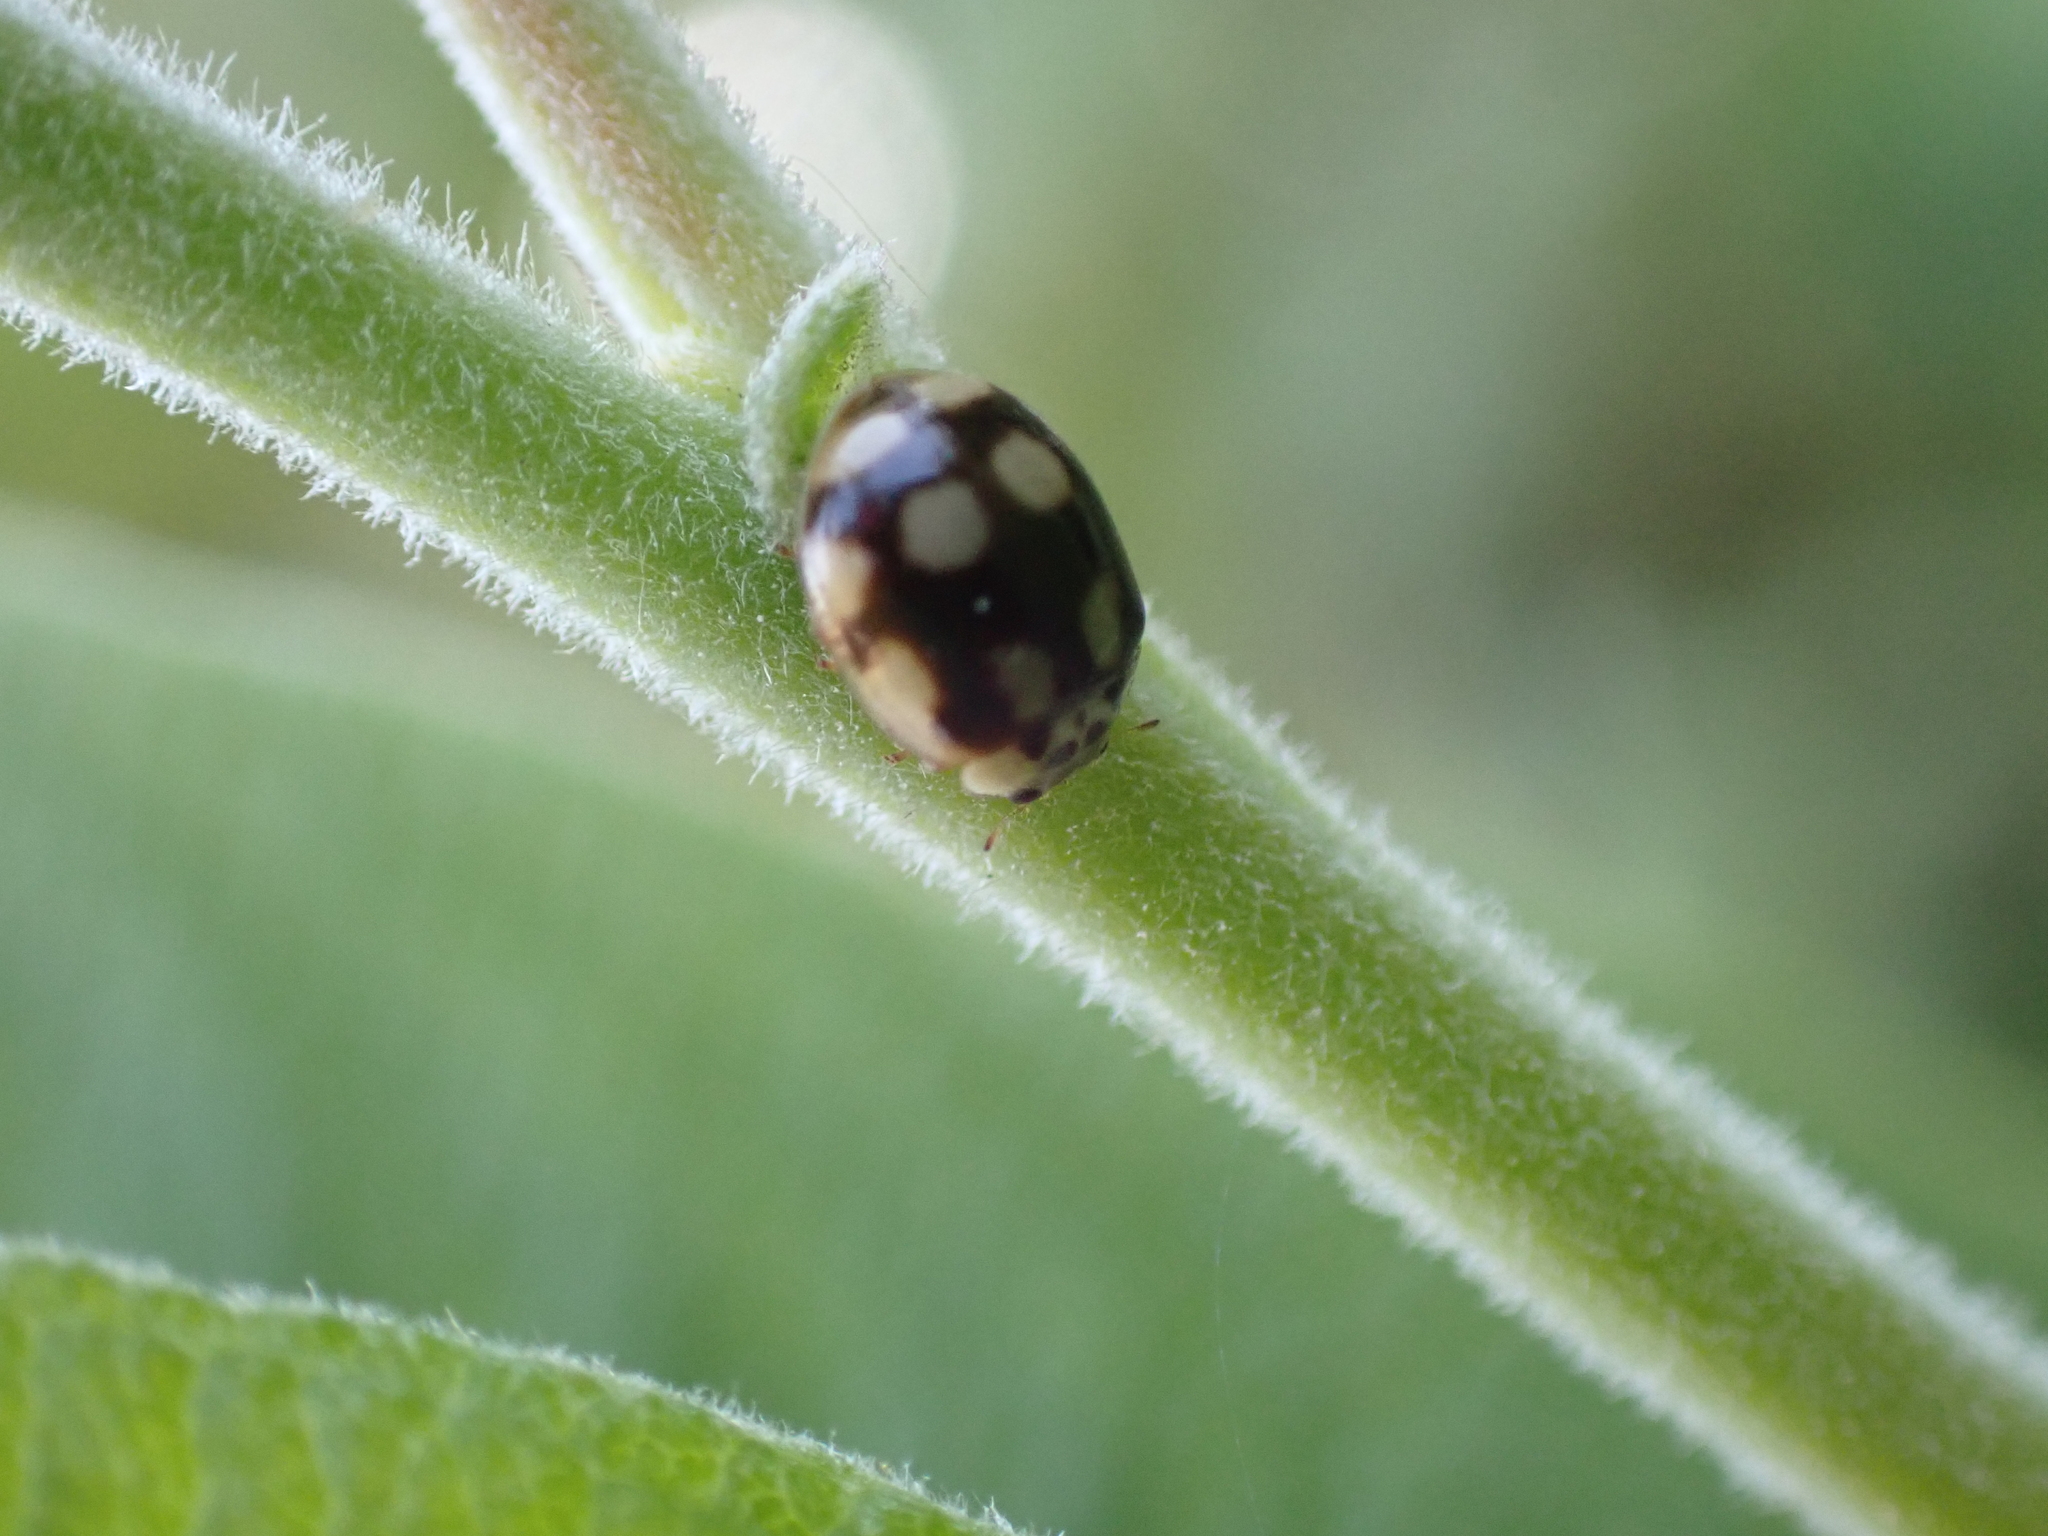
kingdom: Animalia
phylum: Arthropoda
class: Insecta
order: Coleoptera
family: Coccinellidae
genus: Adalia
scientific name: Adalia decempunctata
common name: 10-spot ladybird
